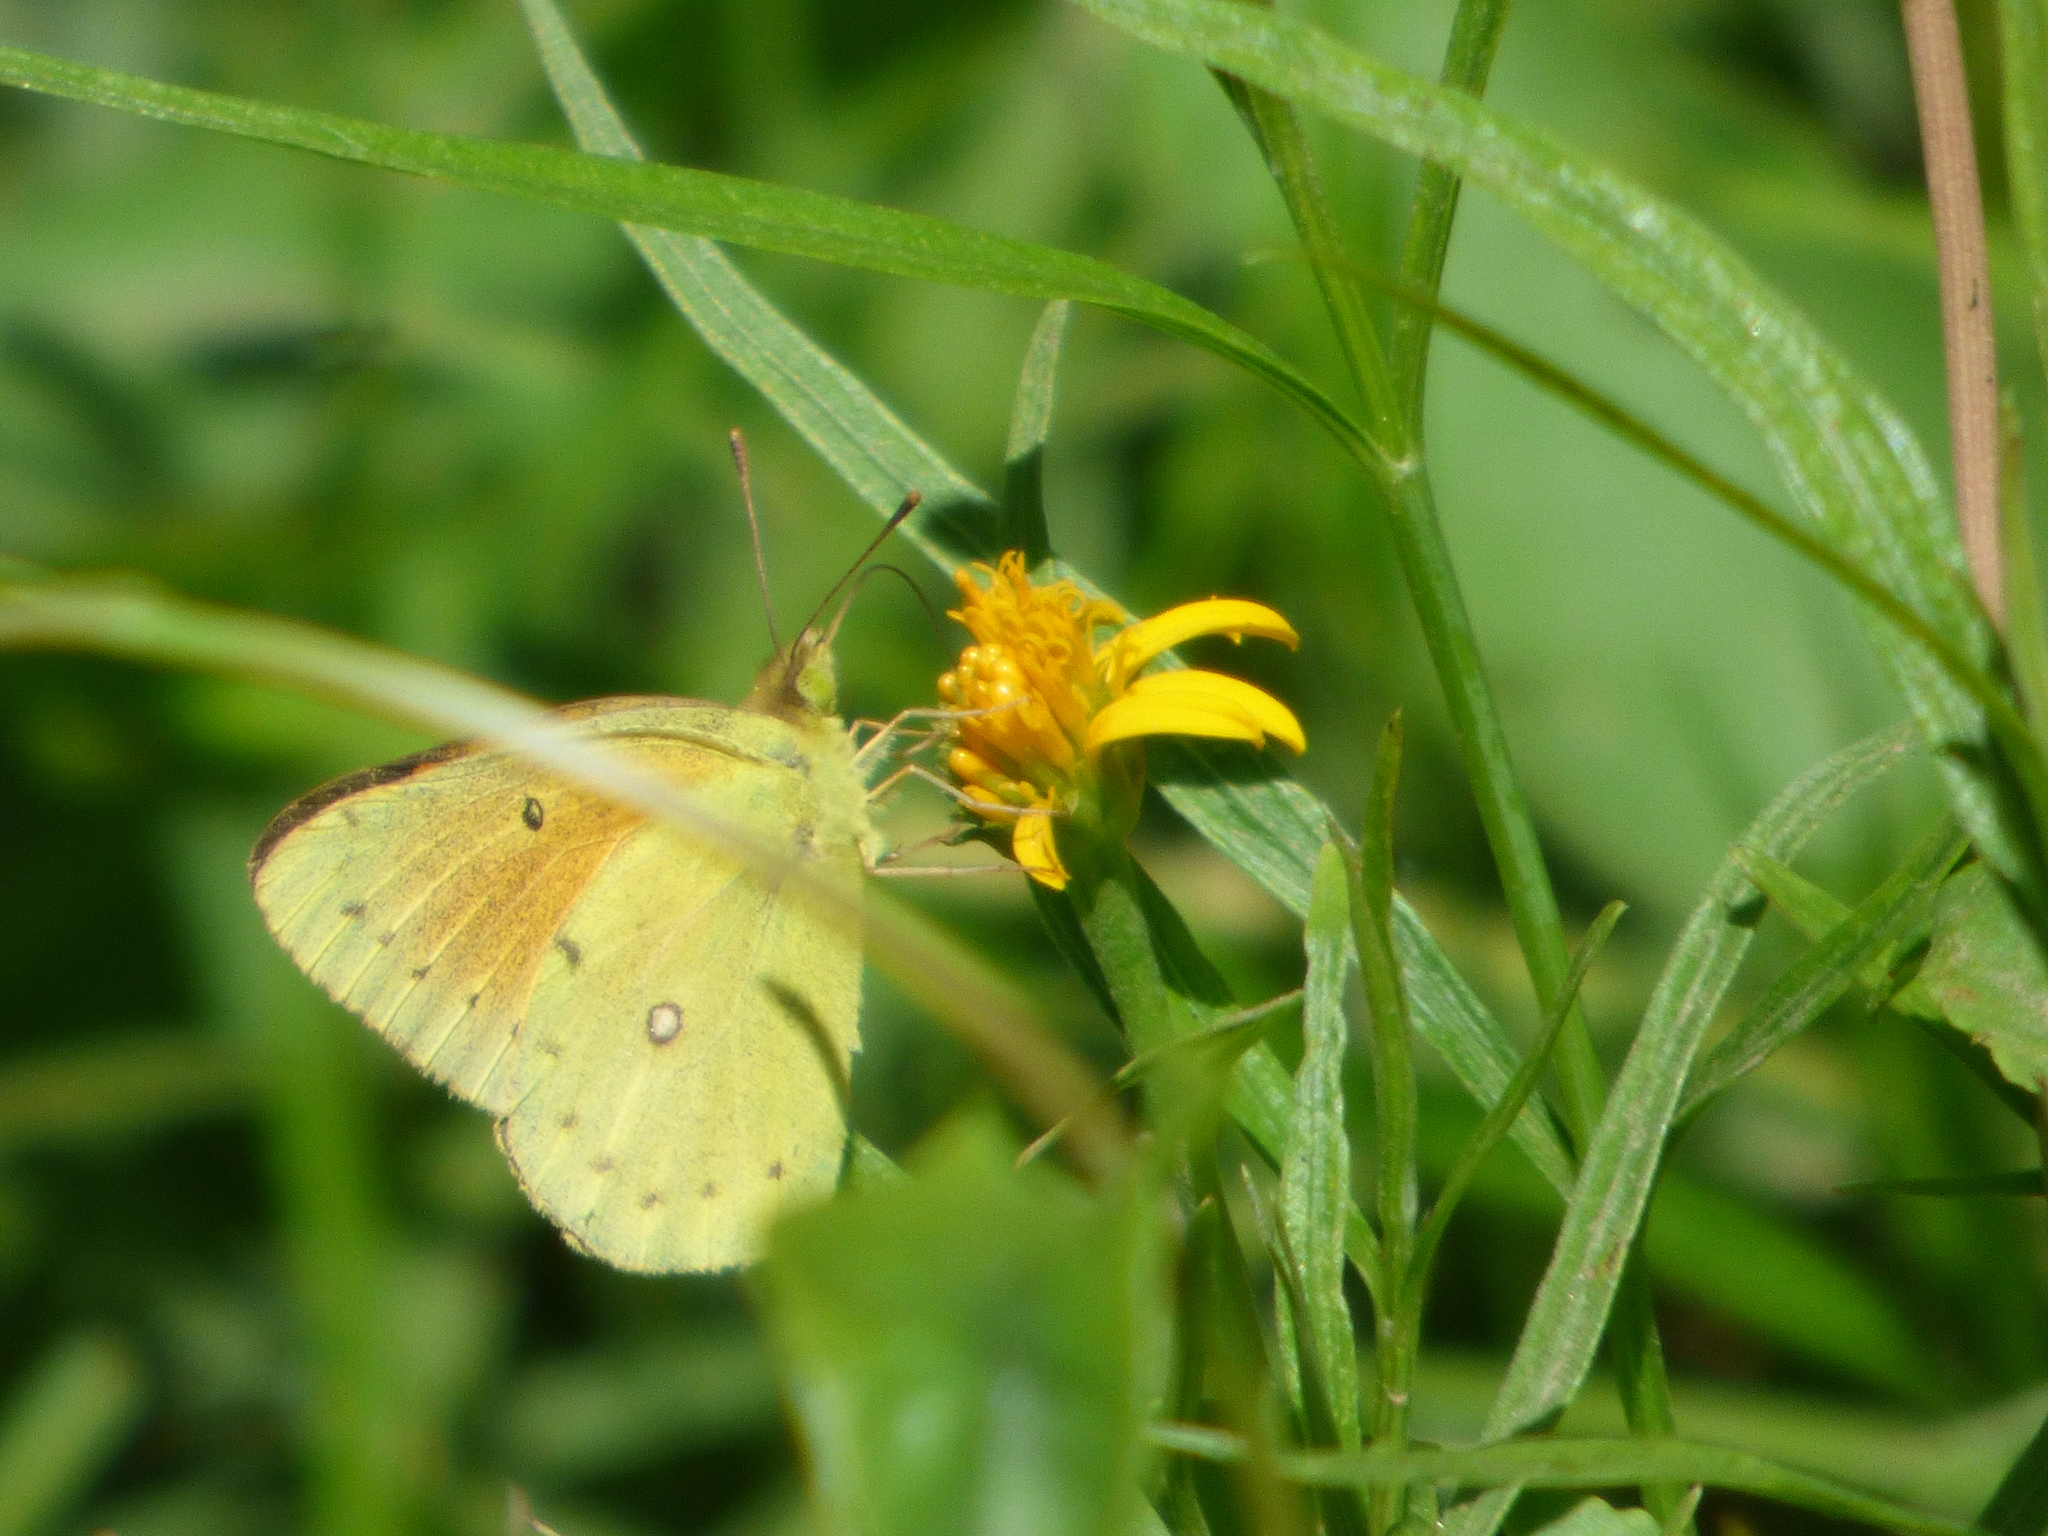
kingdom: Animalia
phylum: Arthropoda
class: Insecta
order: Lepidoptera
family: Pieridae
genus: Colias
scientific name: Colias lesbia
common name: Lesbia clouded yellow
